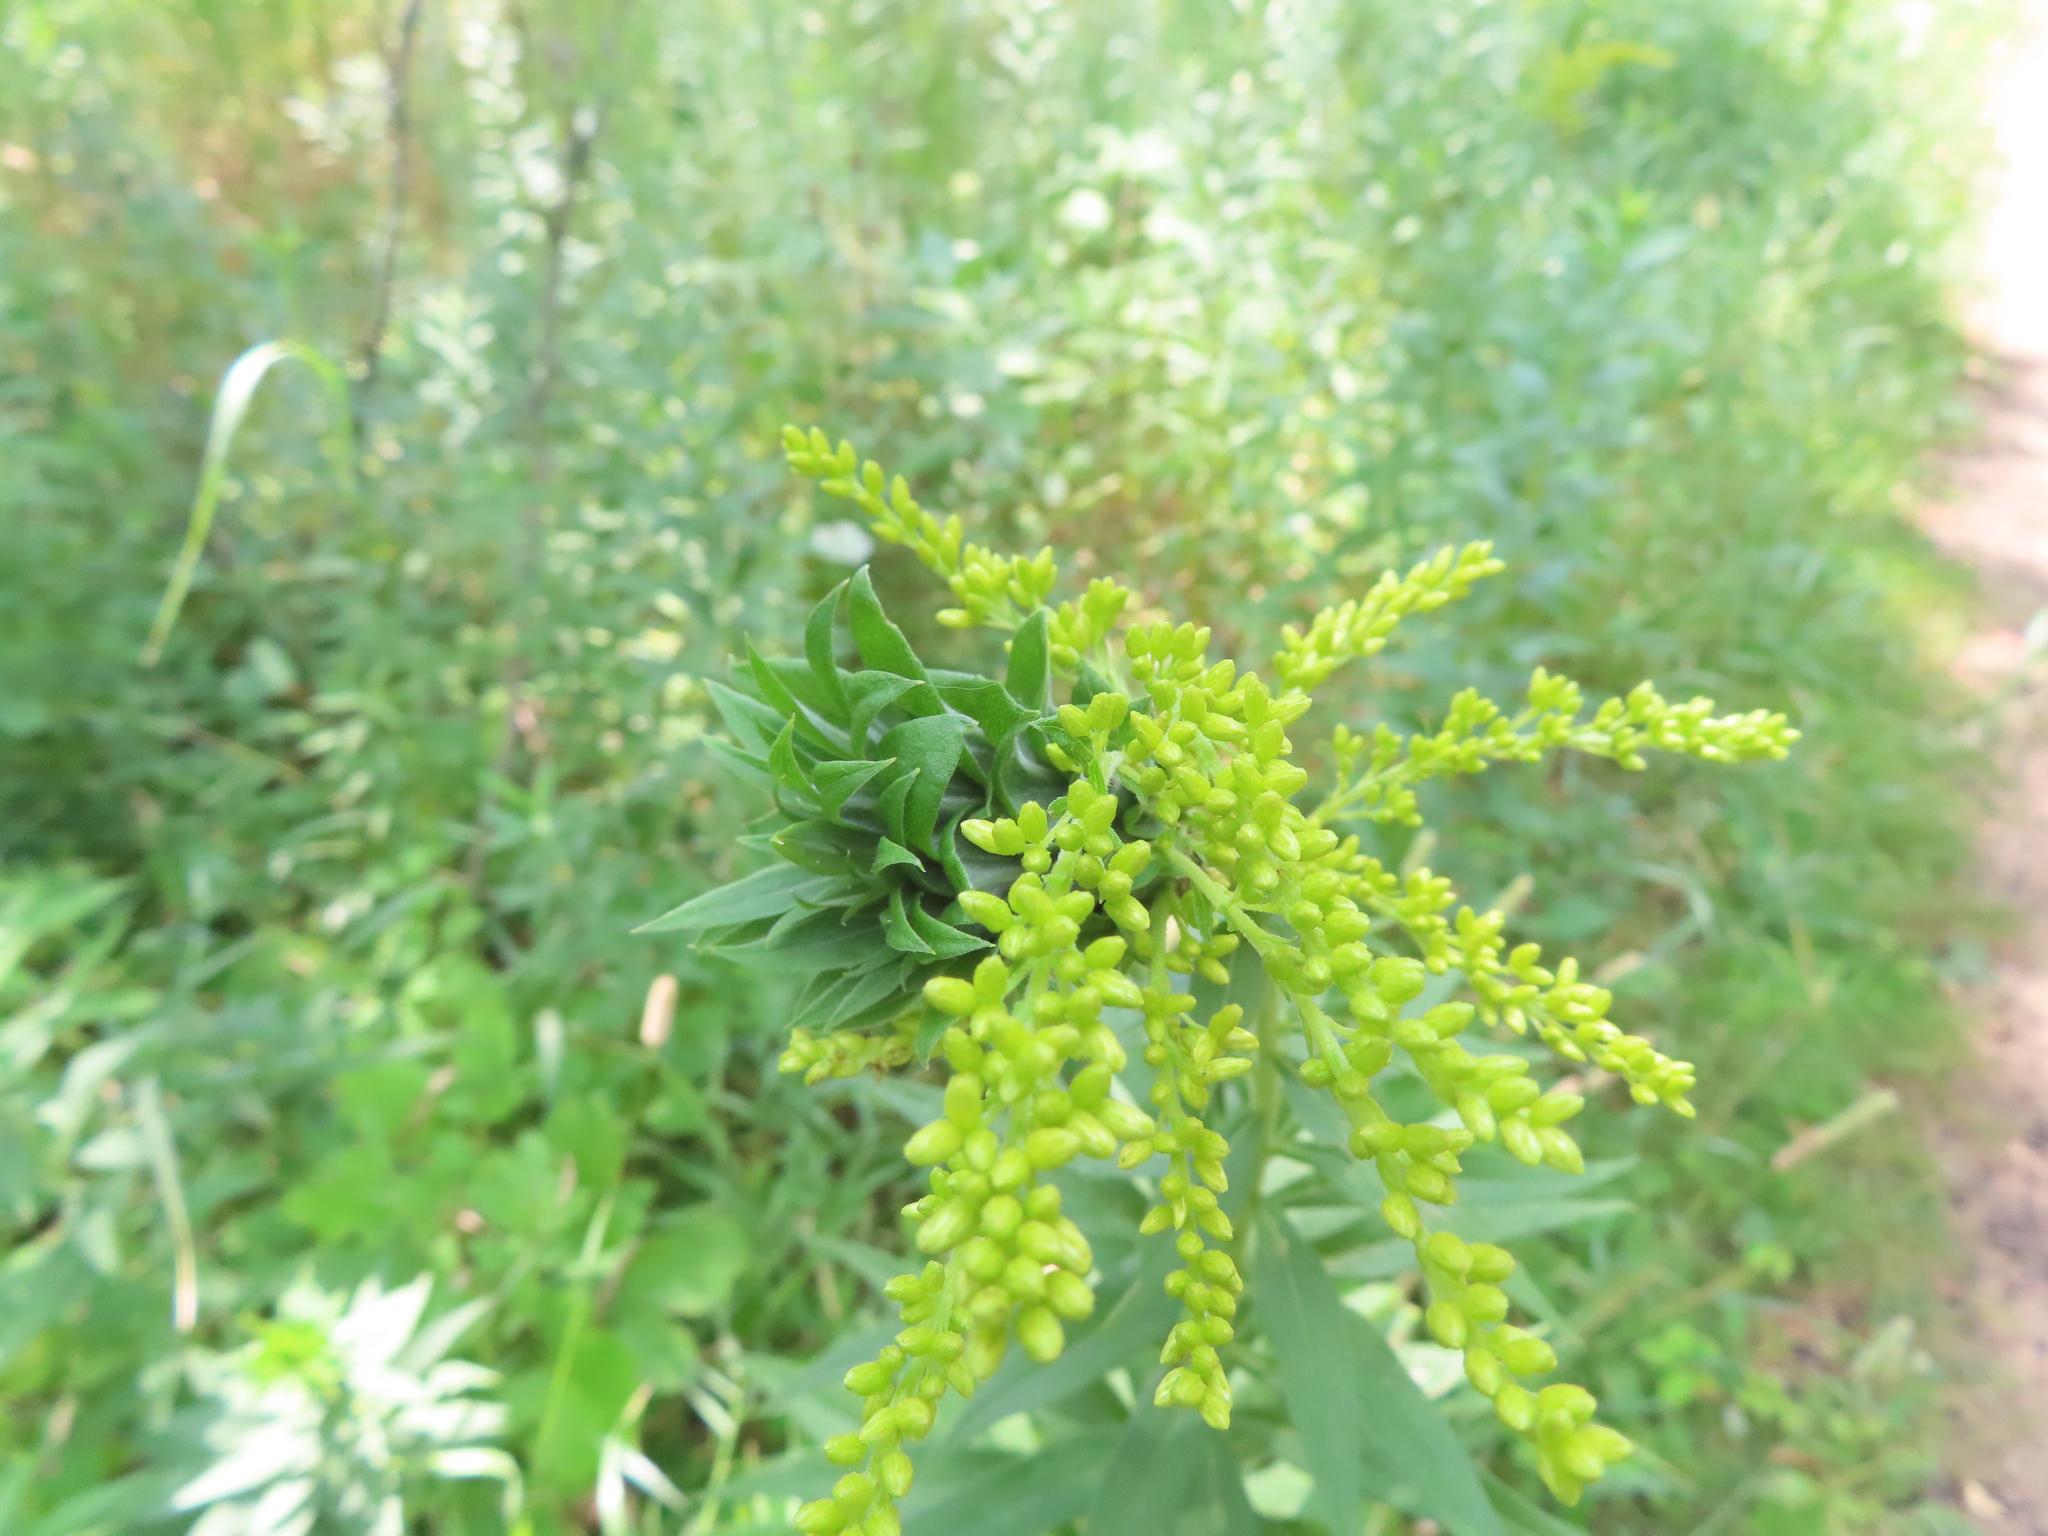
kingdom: Animalia
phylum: Arthropoda
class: Insecta
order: Diptera
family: Cecidomyiidae
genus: Rhopalomyia
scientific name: Rhopalomyia solidaginis
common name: Goldenrod bunch gall midge
